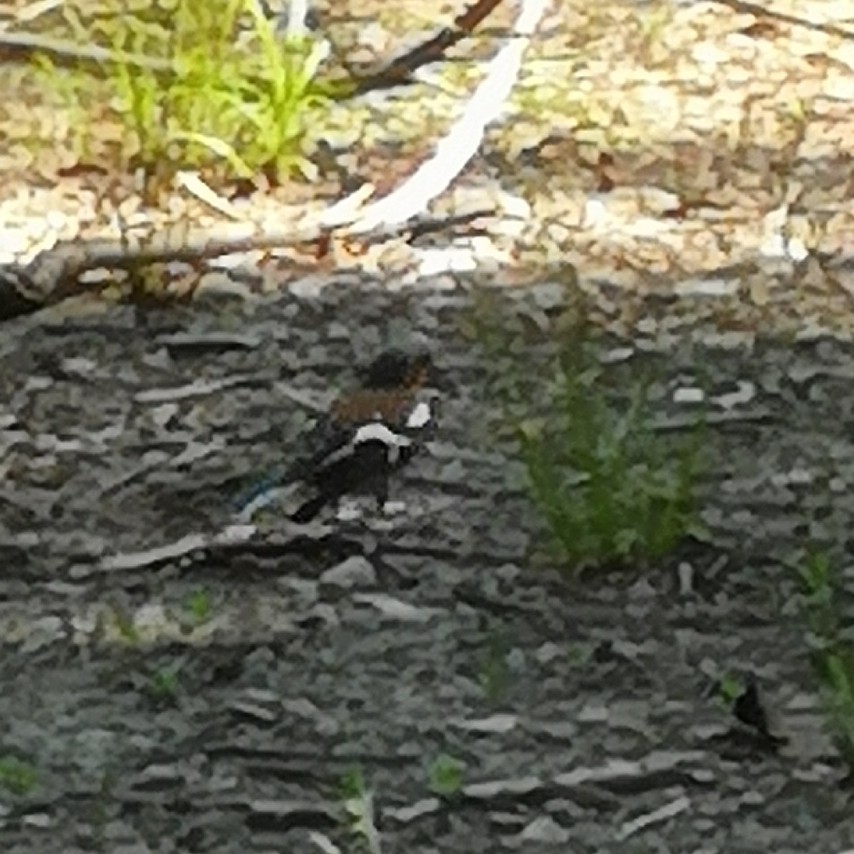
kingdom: Animalia
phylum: Chordata
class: Aves
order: Passeriformes
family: Fringillidae
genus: Fringilla
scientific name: Fringilla coelebs
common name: Common chaffinch
